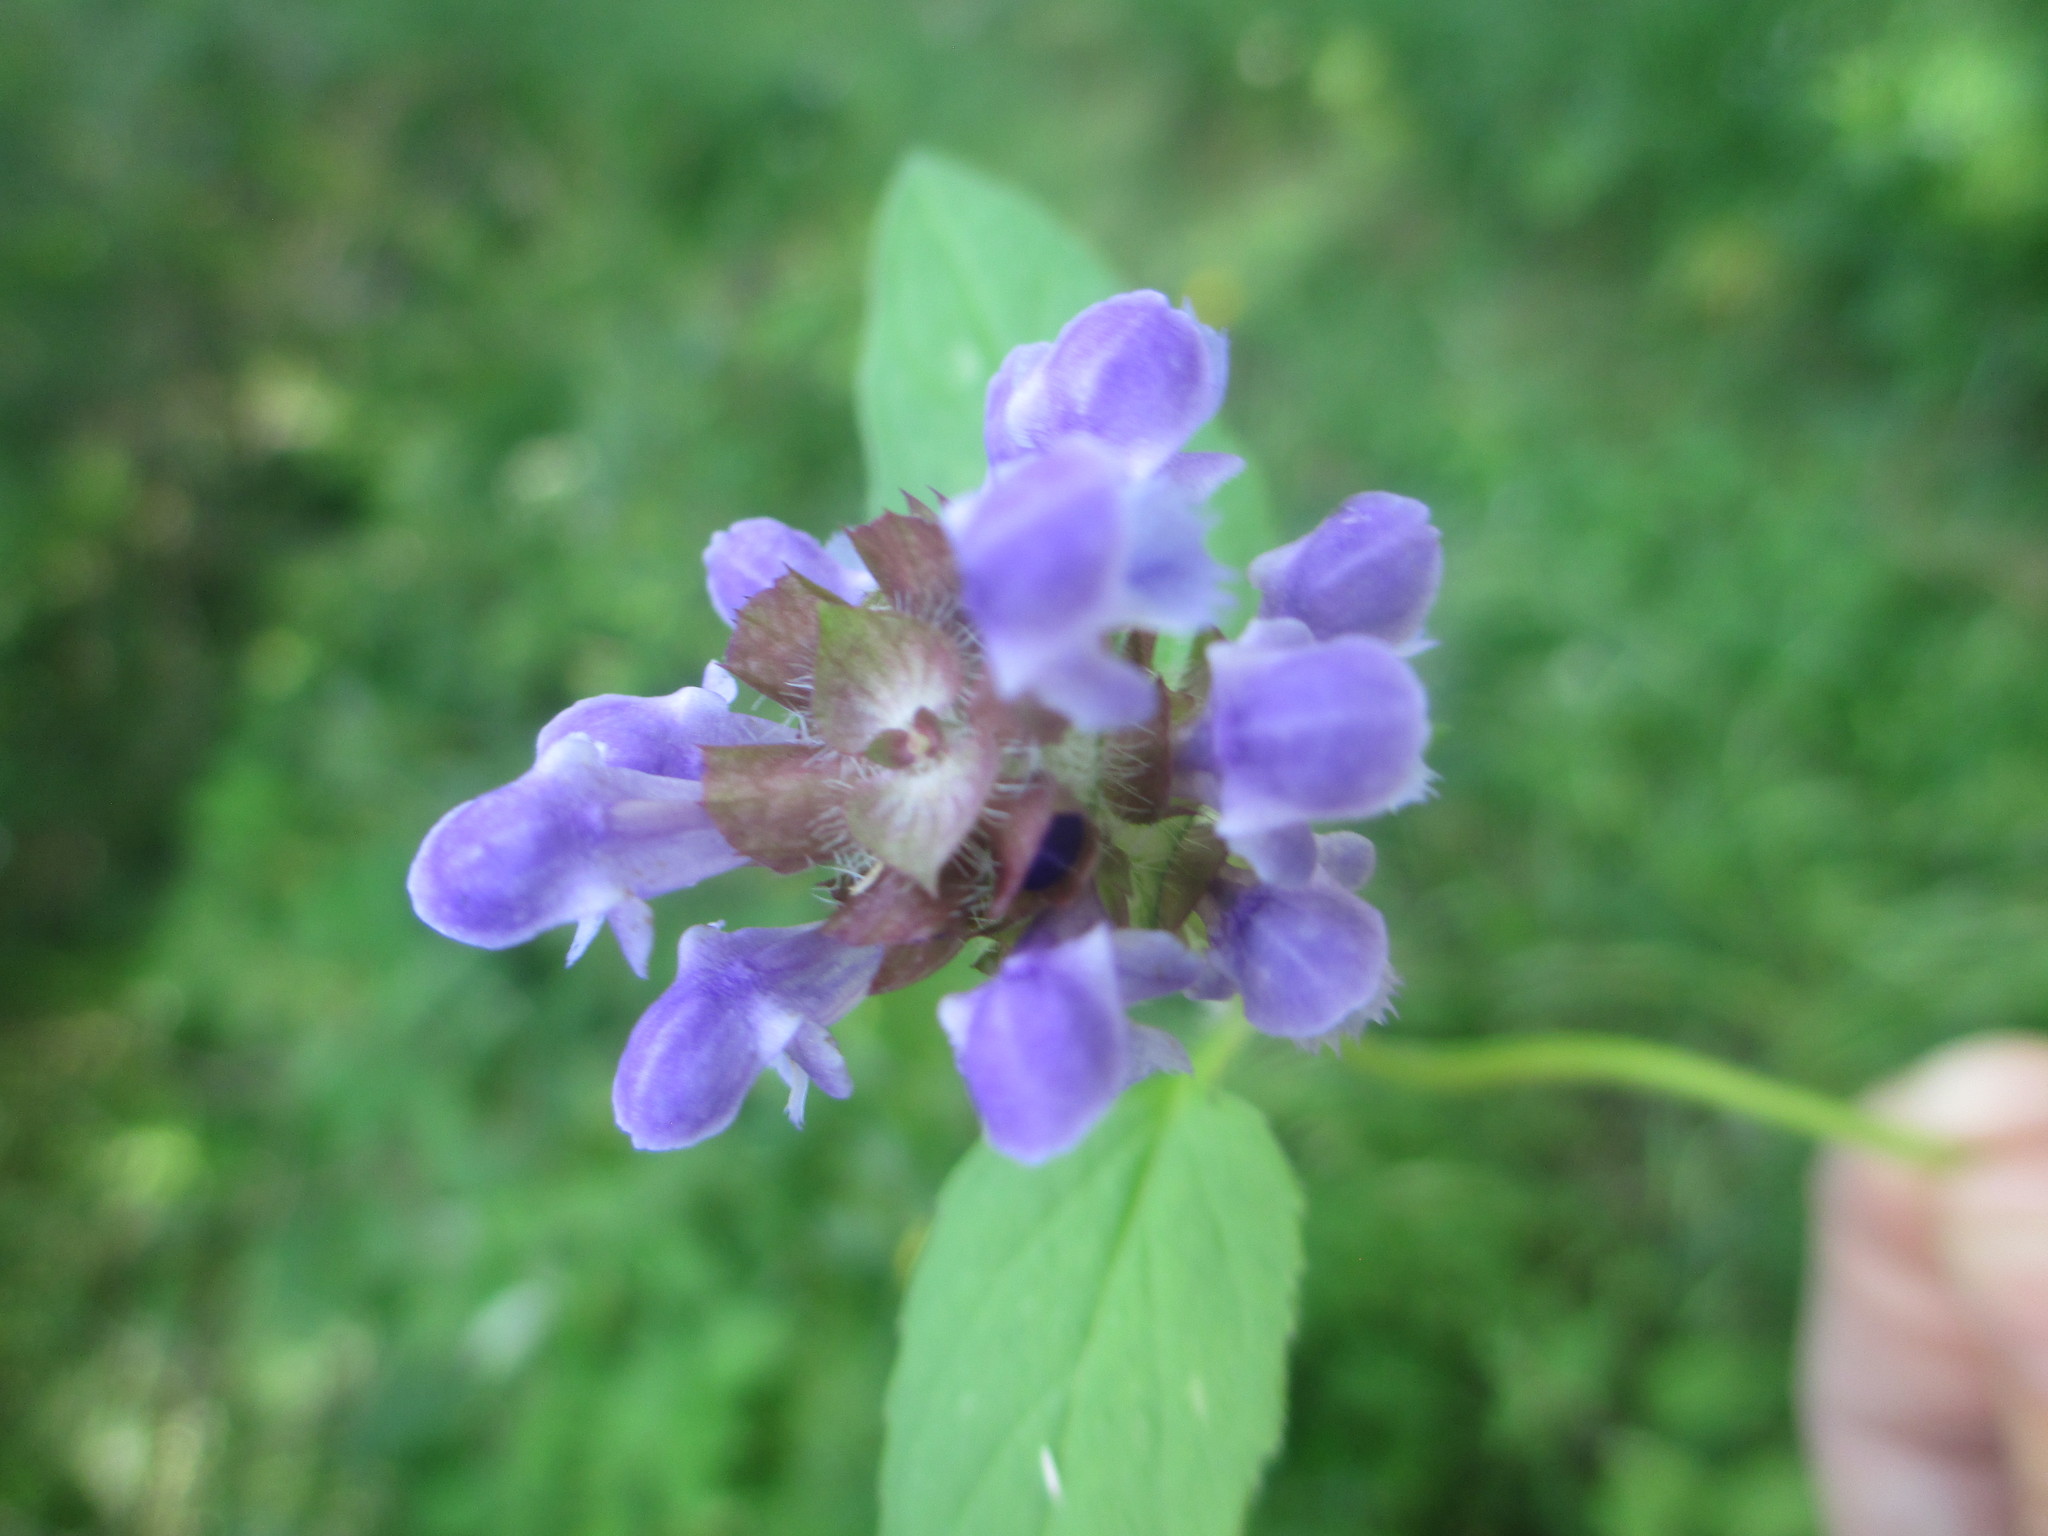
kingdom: Plantae
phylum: Tracheophyta
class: Magnoliopsida
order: Lamiales
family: Lamiaceae
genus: Prunella
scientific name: Prunella vulgaris
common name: Heal-all
